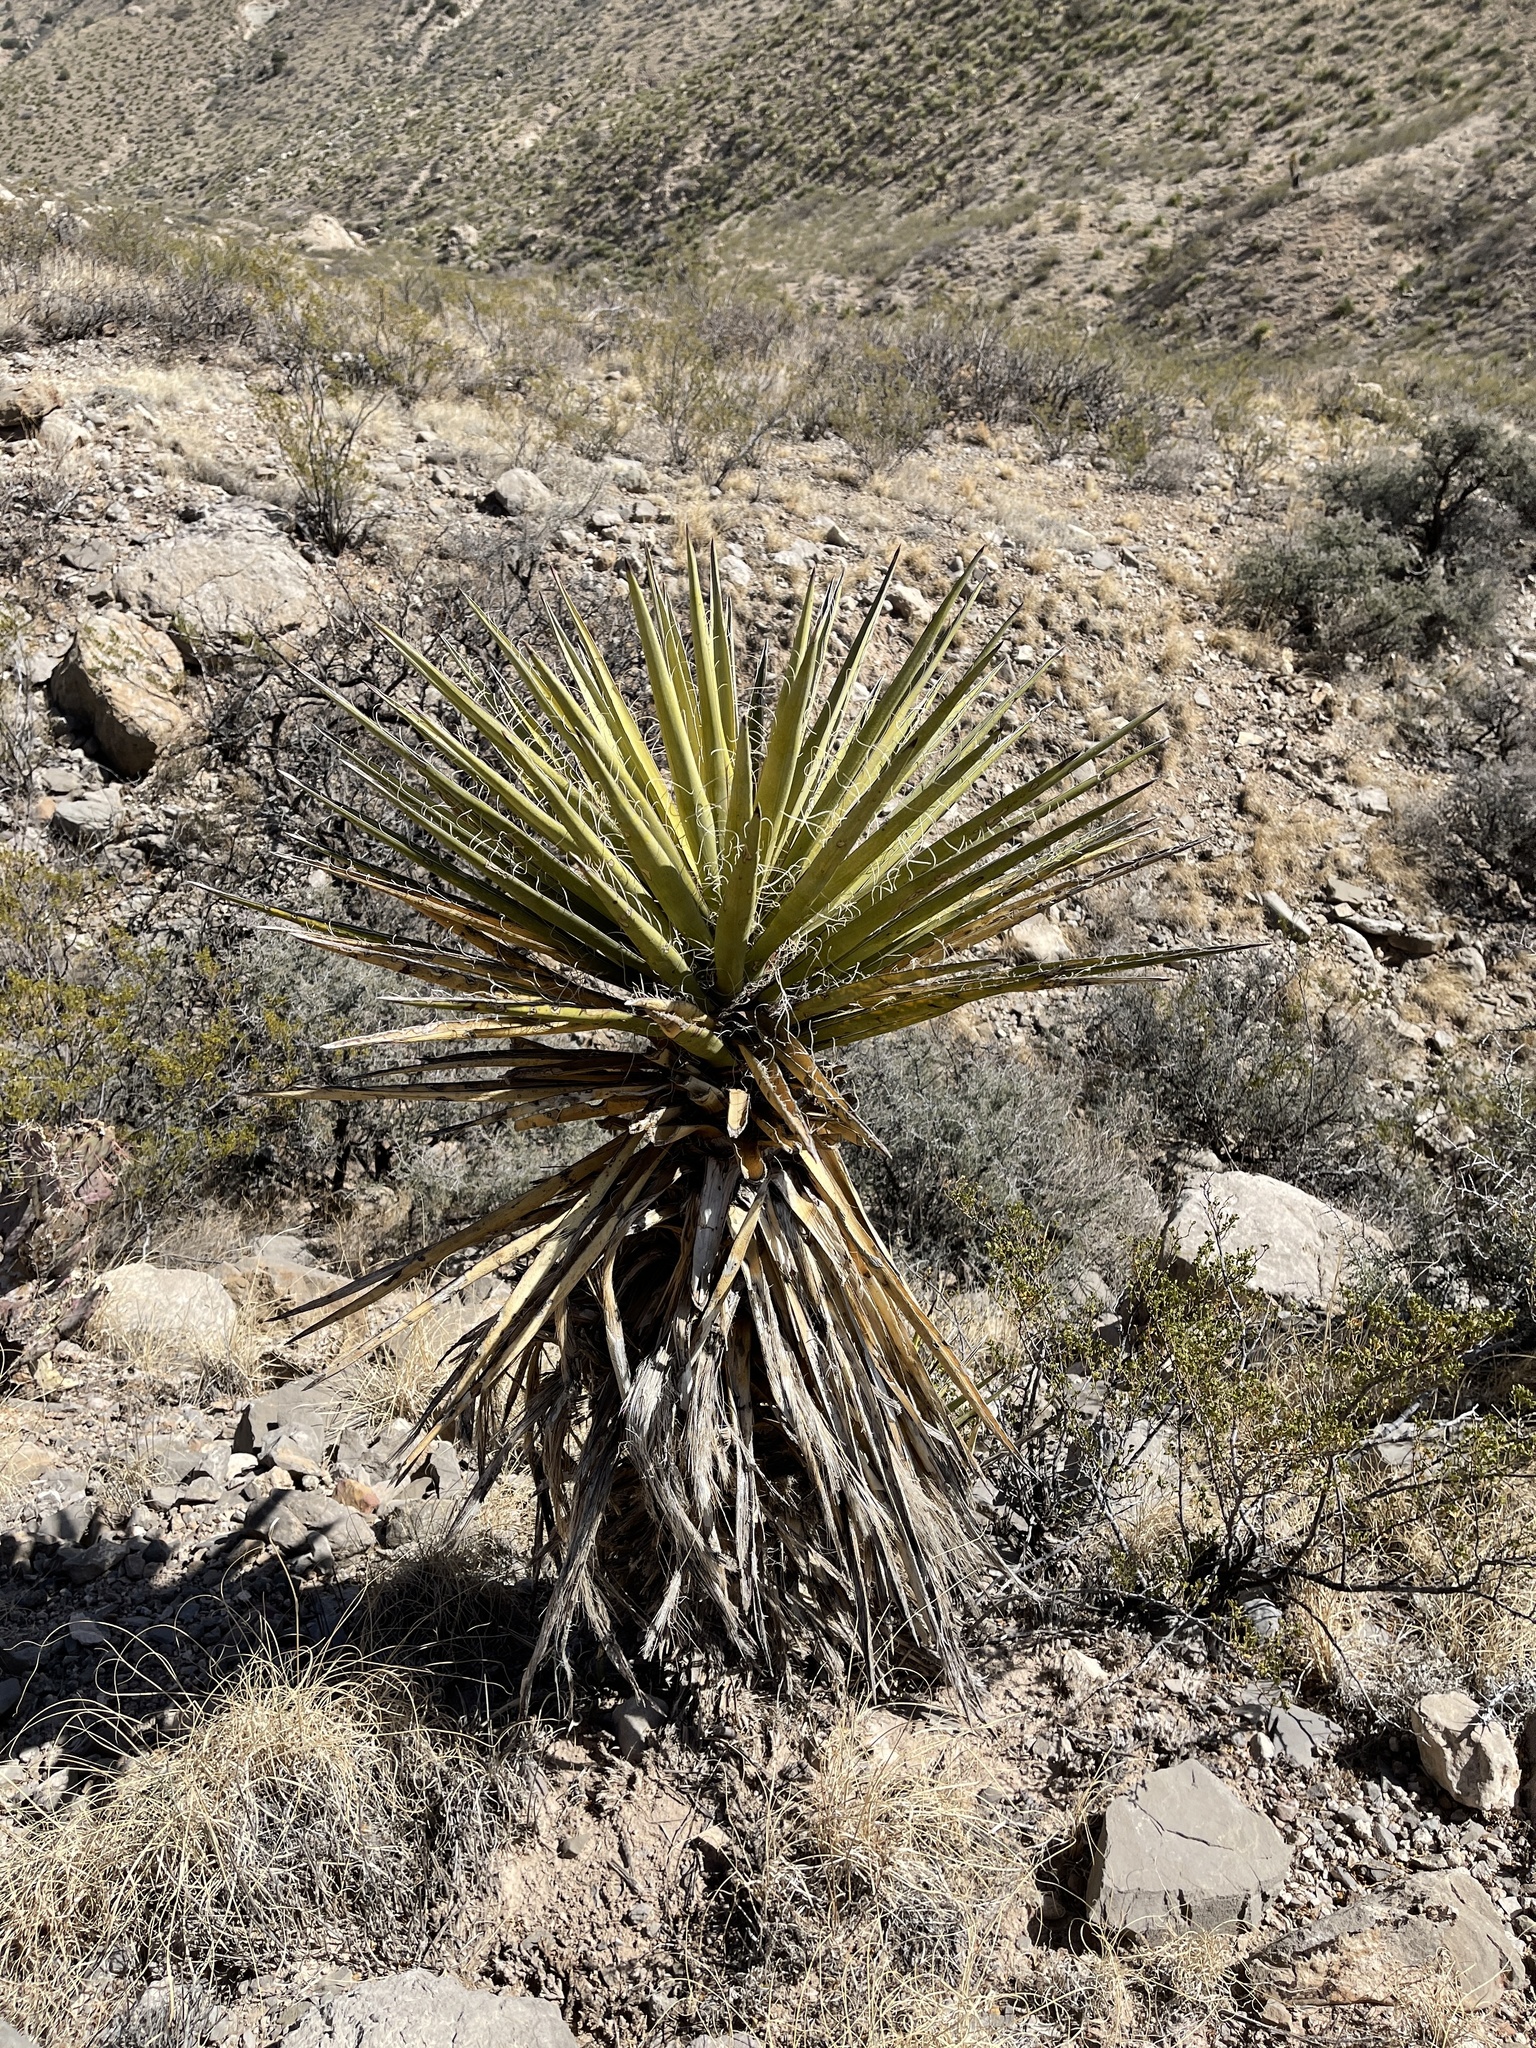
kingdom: Plantae
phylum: Tracheophyta
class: Liliopsida
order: Asparagales
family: Asparagaceae
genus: Yucca
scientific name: Yucca treculiana
